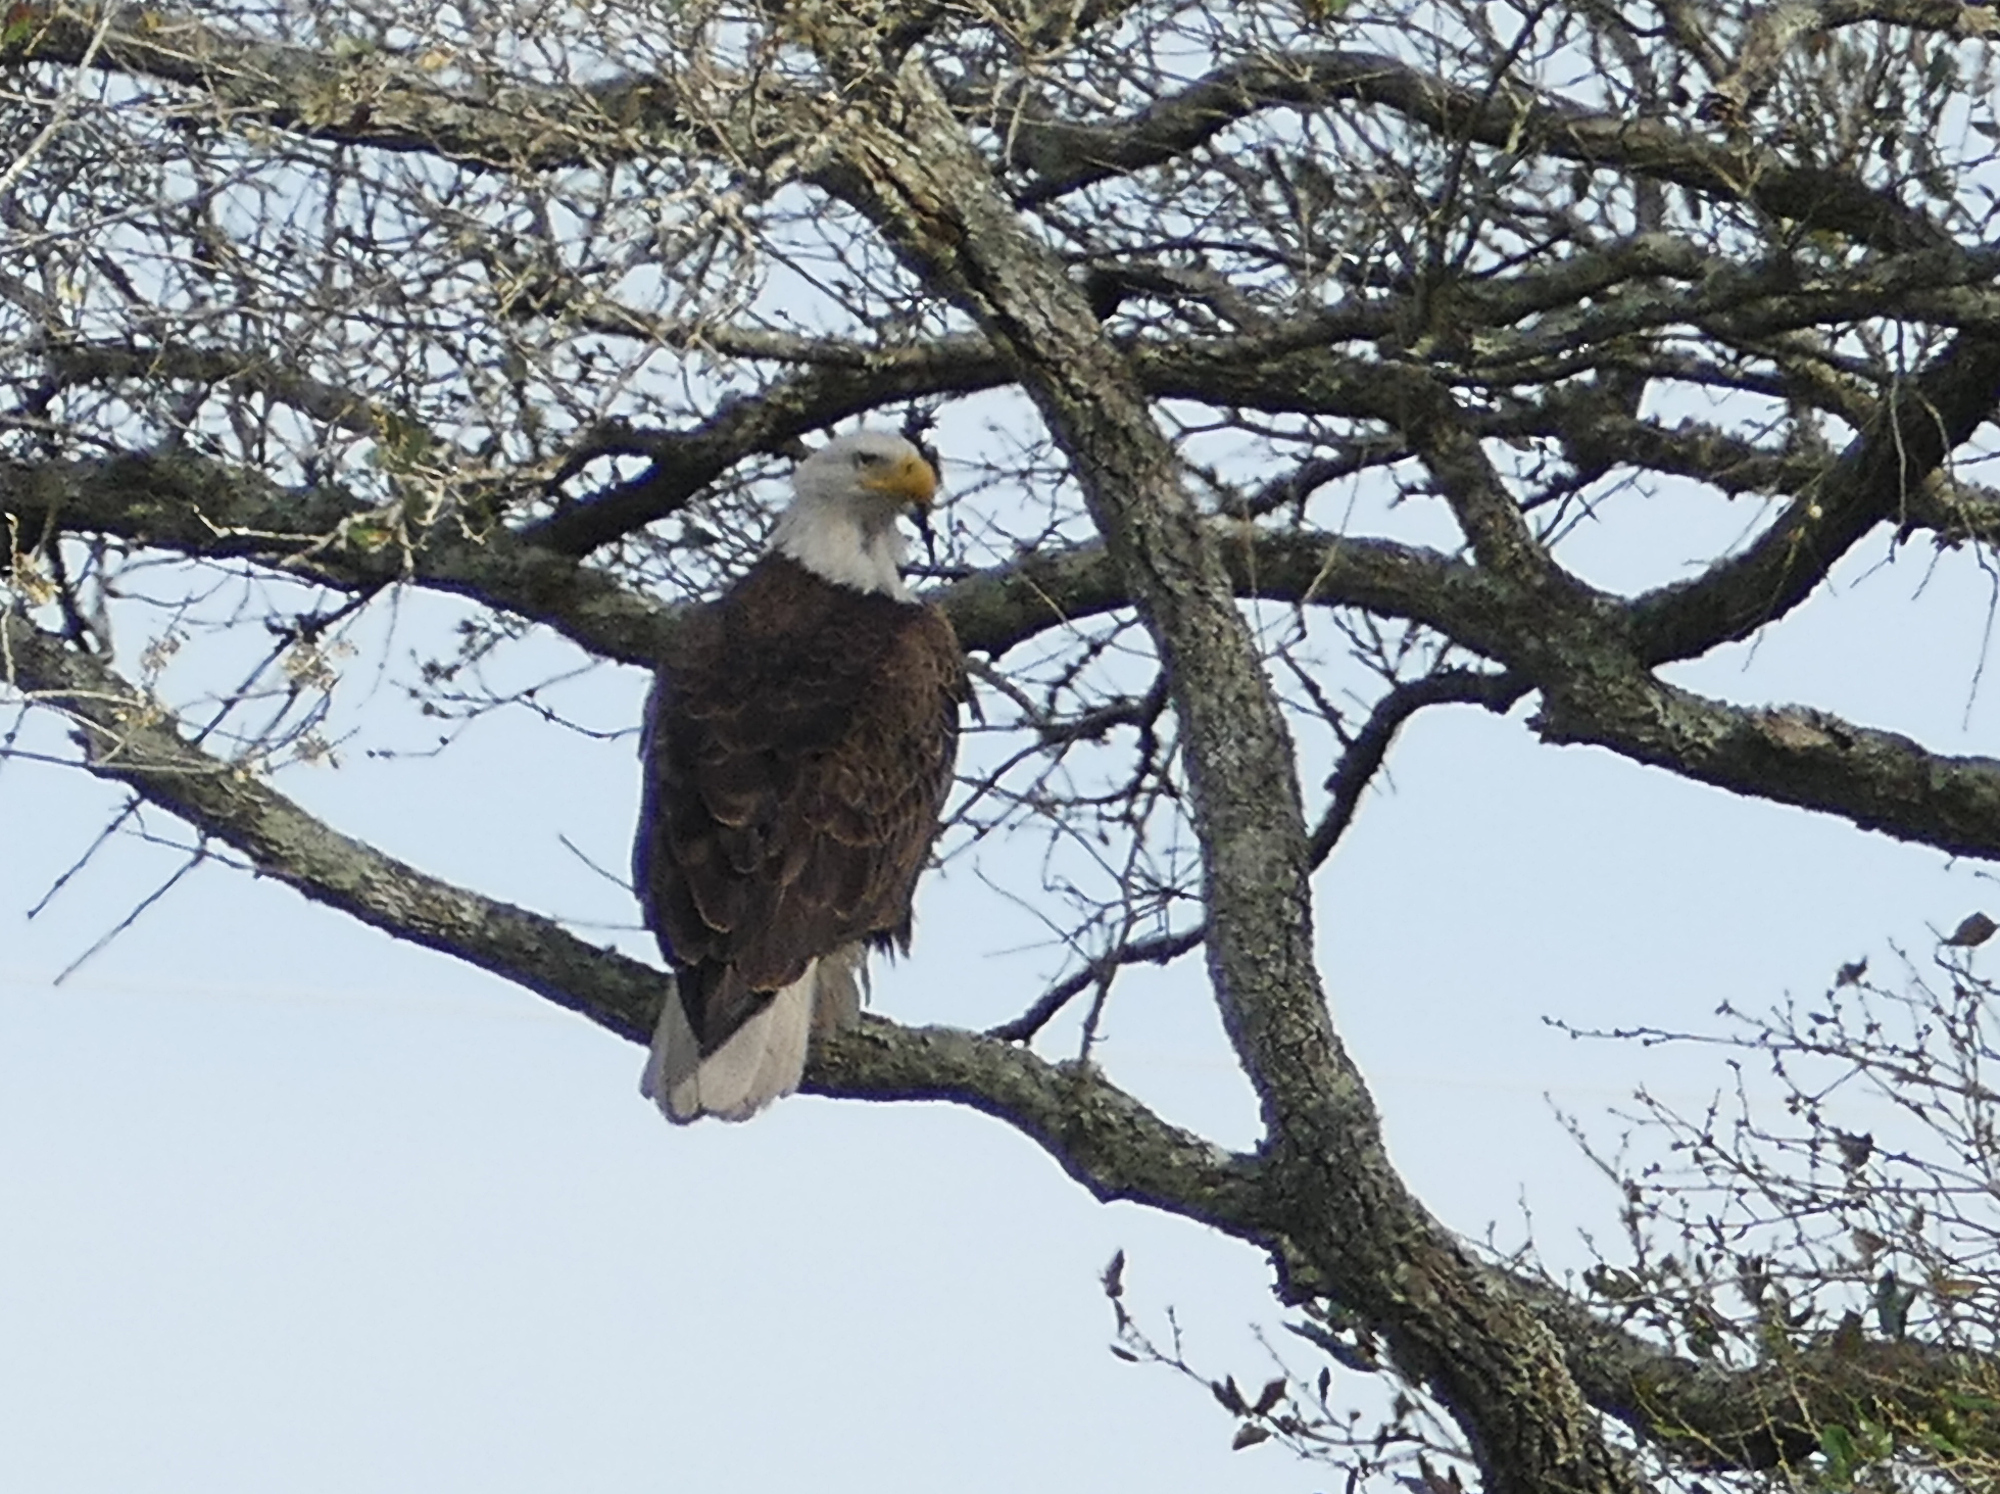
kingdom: Animalia
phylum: Chordata
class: Aves
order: Accipitriformes
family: Accipitridae
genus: Haliaeetus
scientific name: Haliaeetus leucocephalus
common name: Bald eagle
